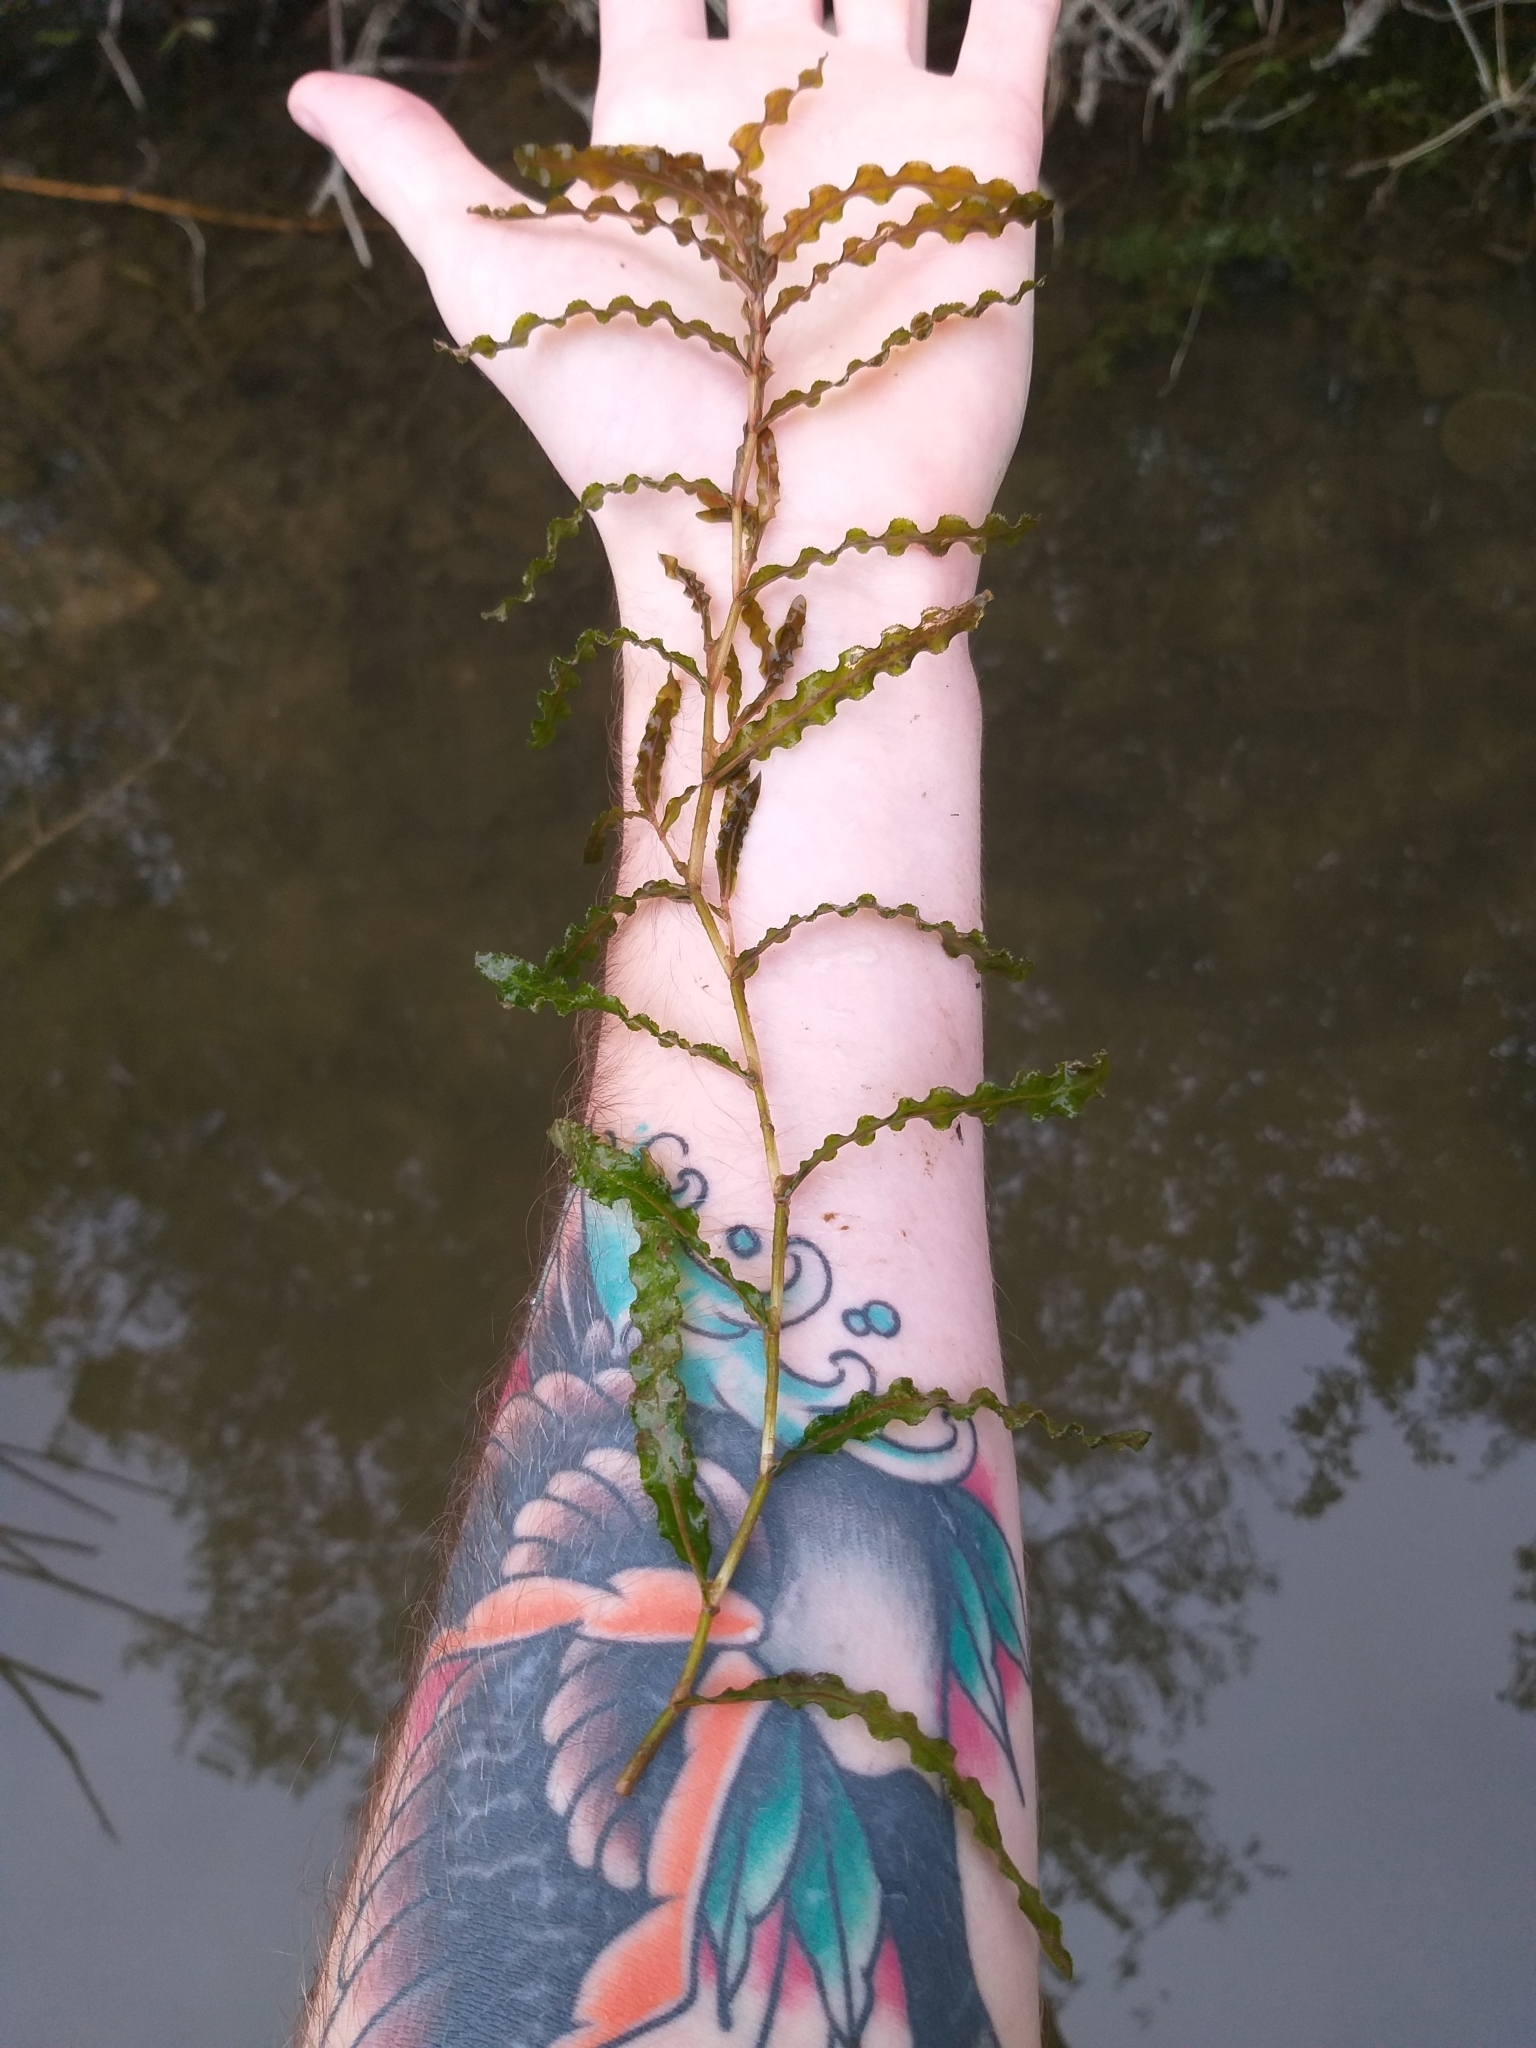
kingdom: Plantae
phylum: Tracheophyta
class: Liliopsida
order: Alismatales
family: Potamogetonaceae
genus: Potamogeton
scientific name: Potamogeton crispus
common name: Curled pondweed
